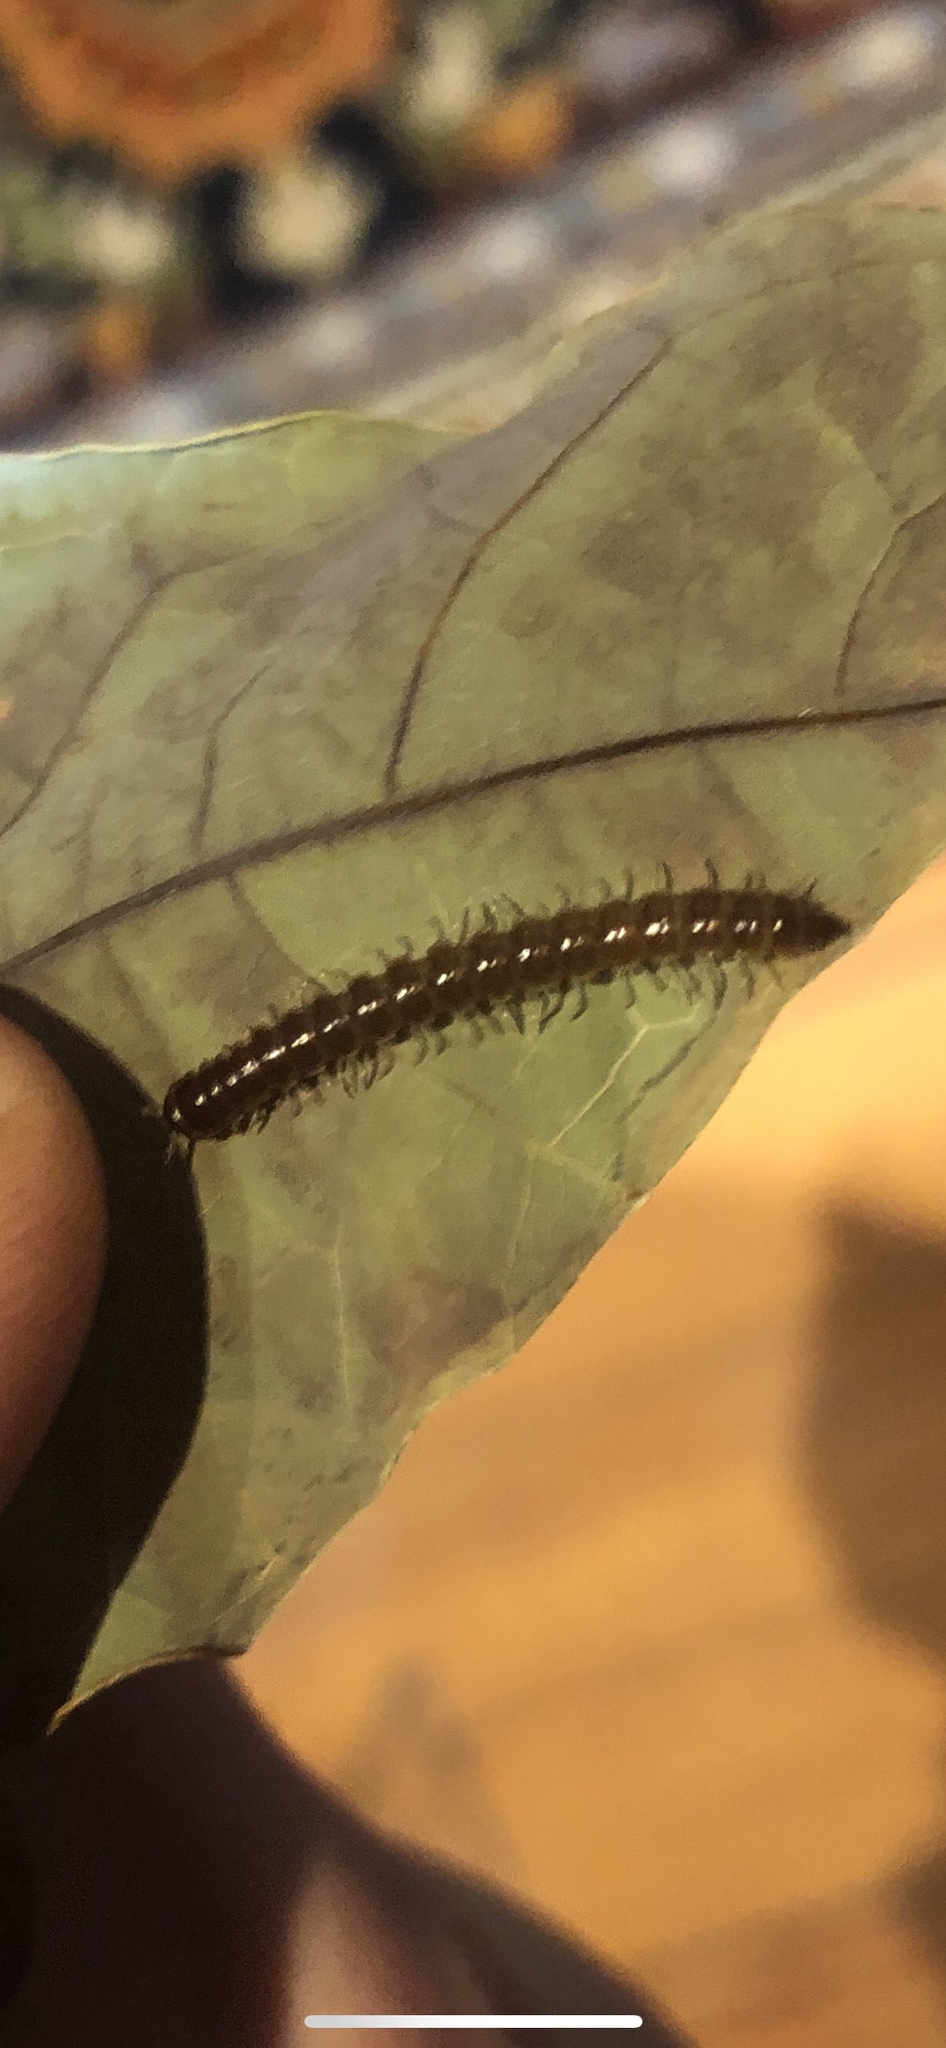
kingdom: Animalia
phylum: Arthropoda
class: Diplopoda
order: Polydesmida
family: Paradoxosomatidae
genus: Oxidus
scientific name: Oxidus gracilis
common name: Greenhouse millipede
